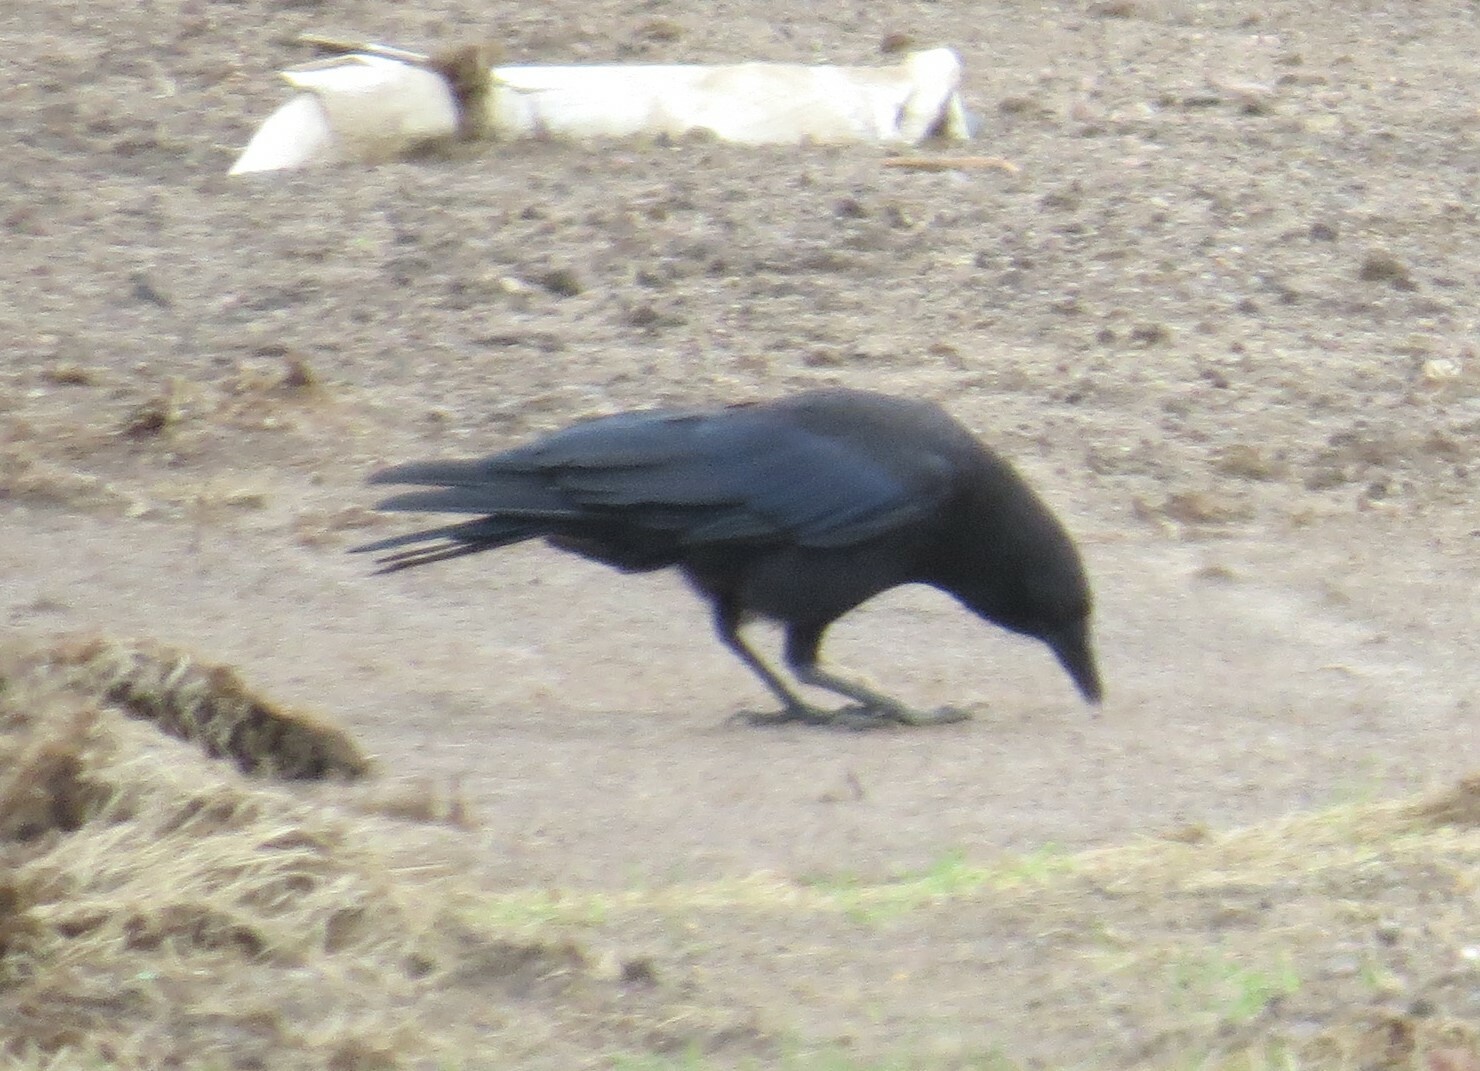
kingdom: Animalia
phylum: Chordata
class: Aves
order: Passeriformes
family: Corvidae
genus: Corvus
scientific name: Corvus brachyrhynchos
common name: American crow
